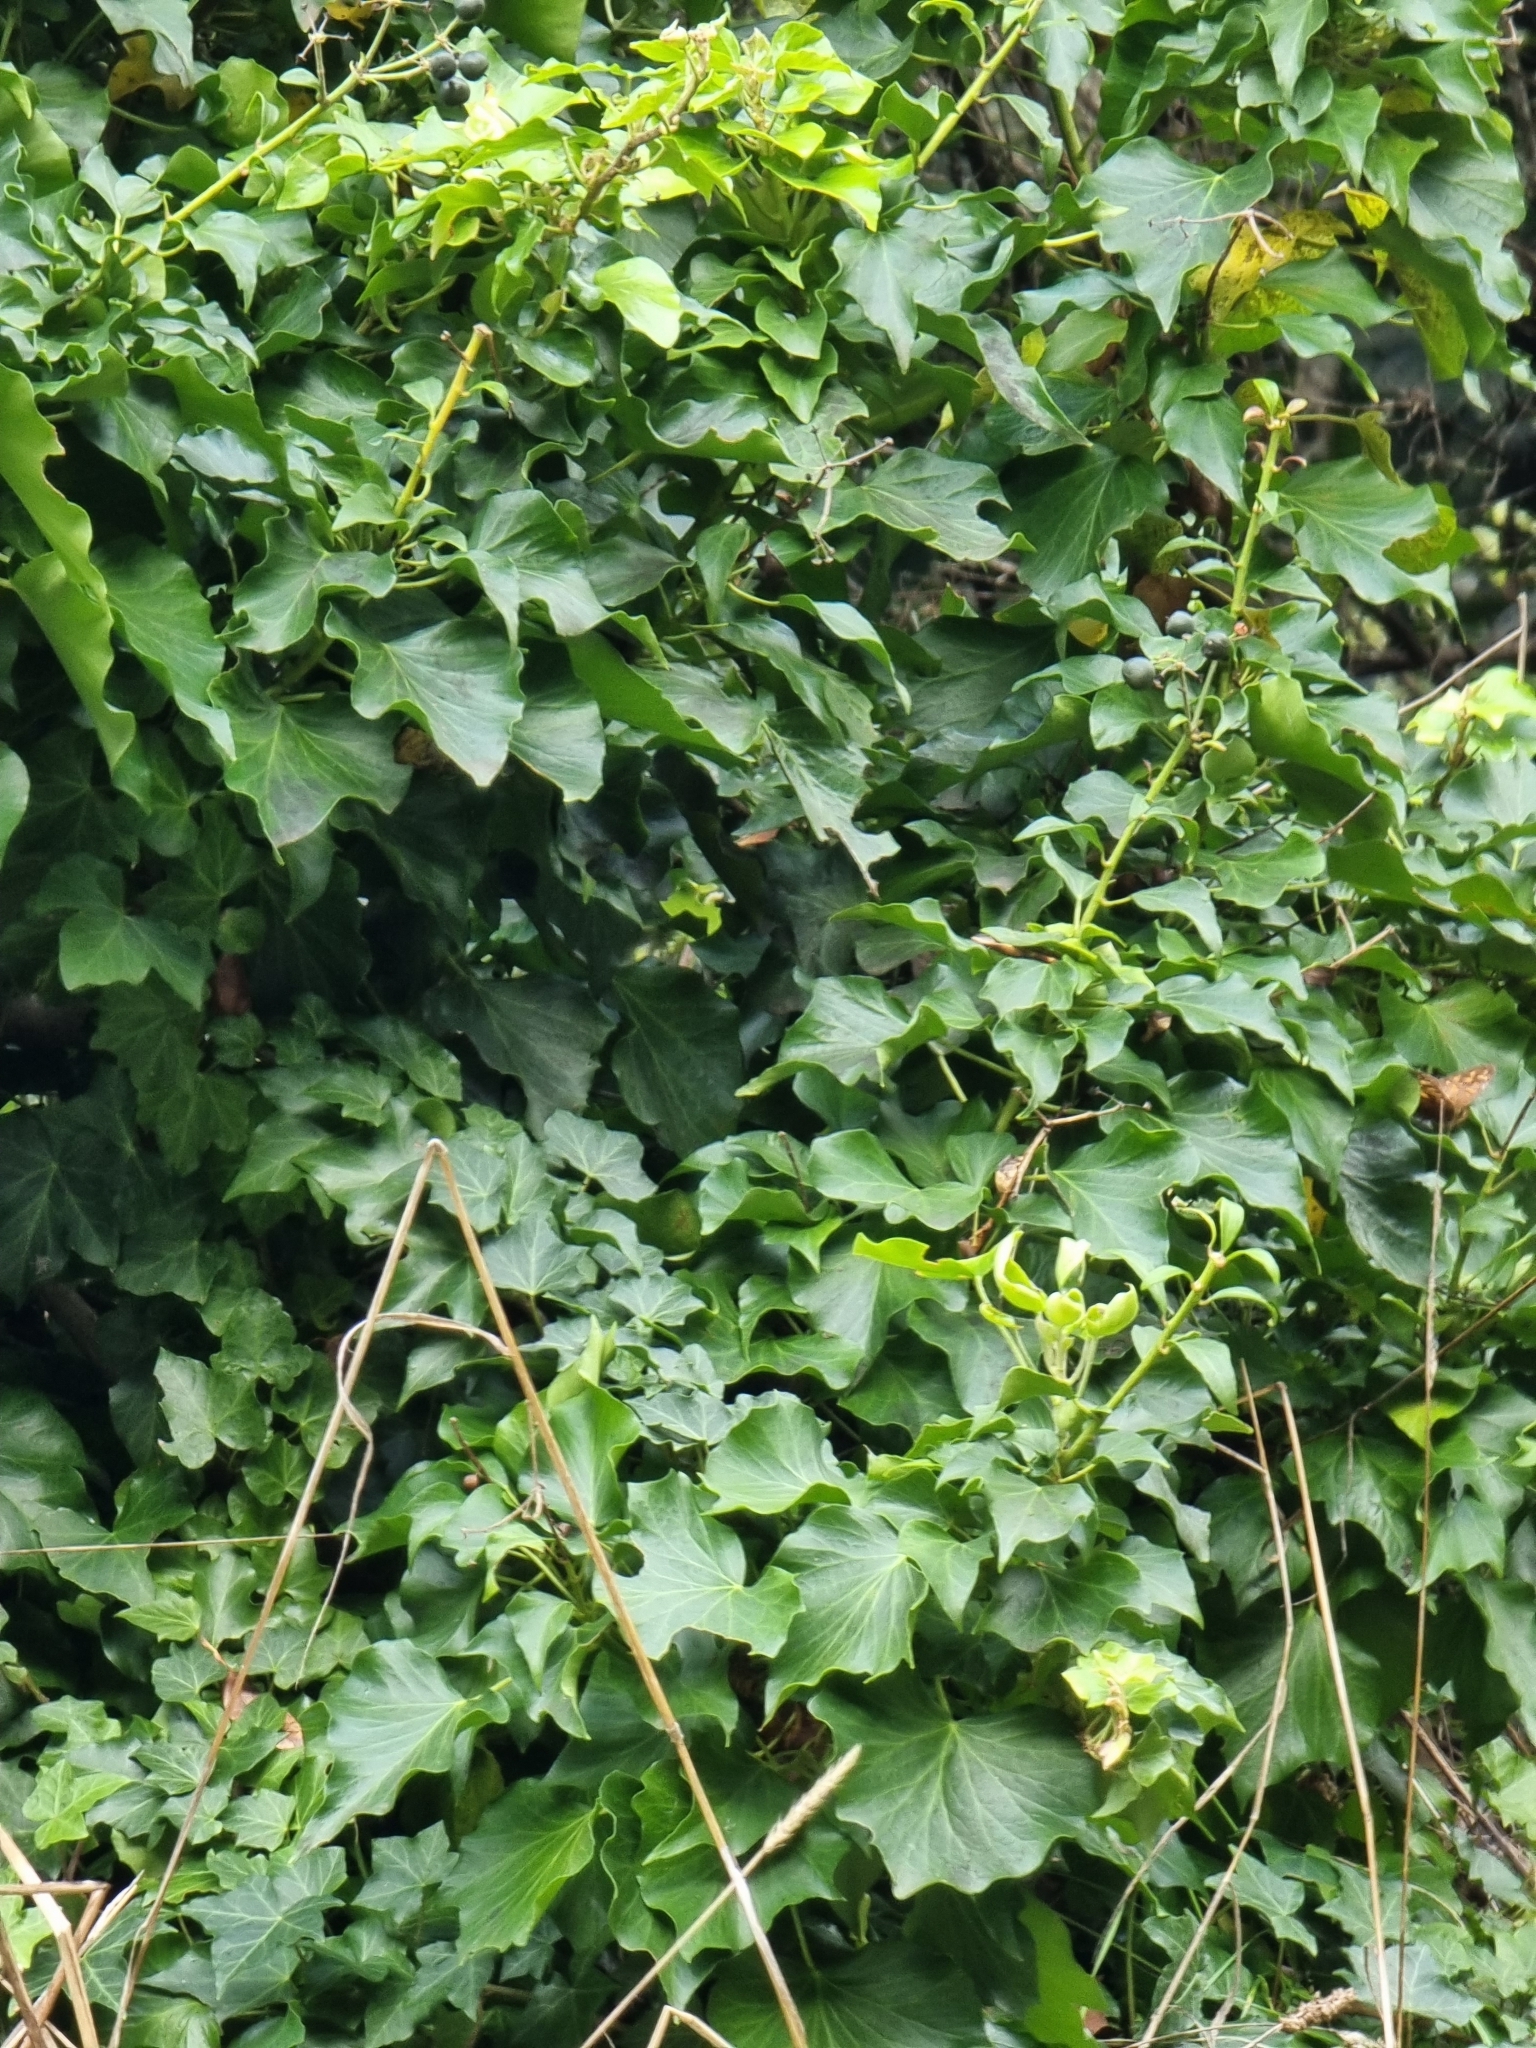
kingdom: Plantae
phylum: Tracheophyta
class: Magnoliopsida
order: Apiales
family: Araliaceae
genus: Hedera
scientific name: Hedera maderensis
